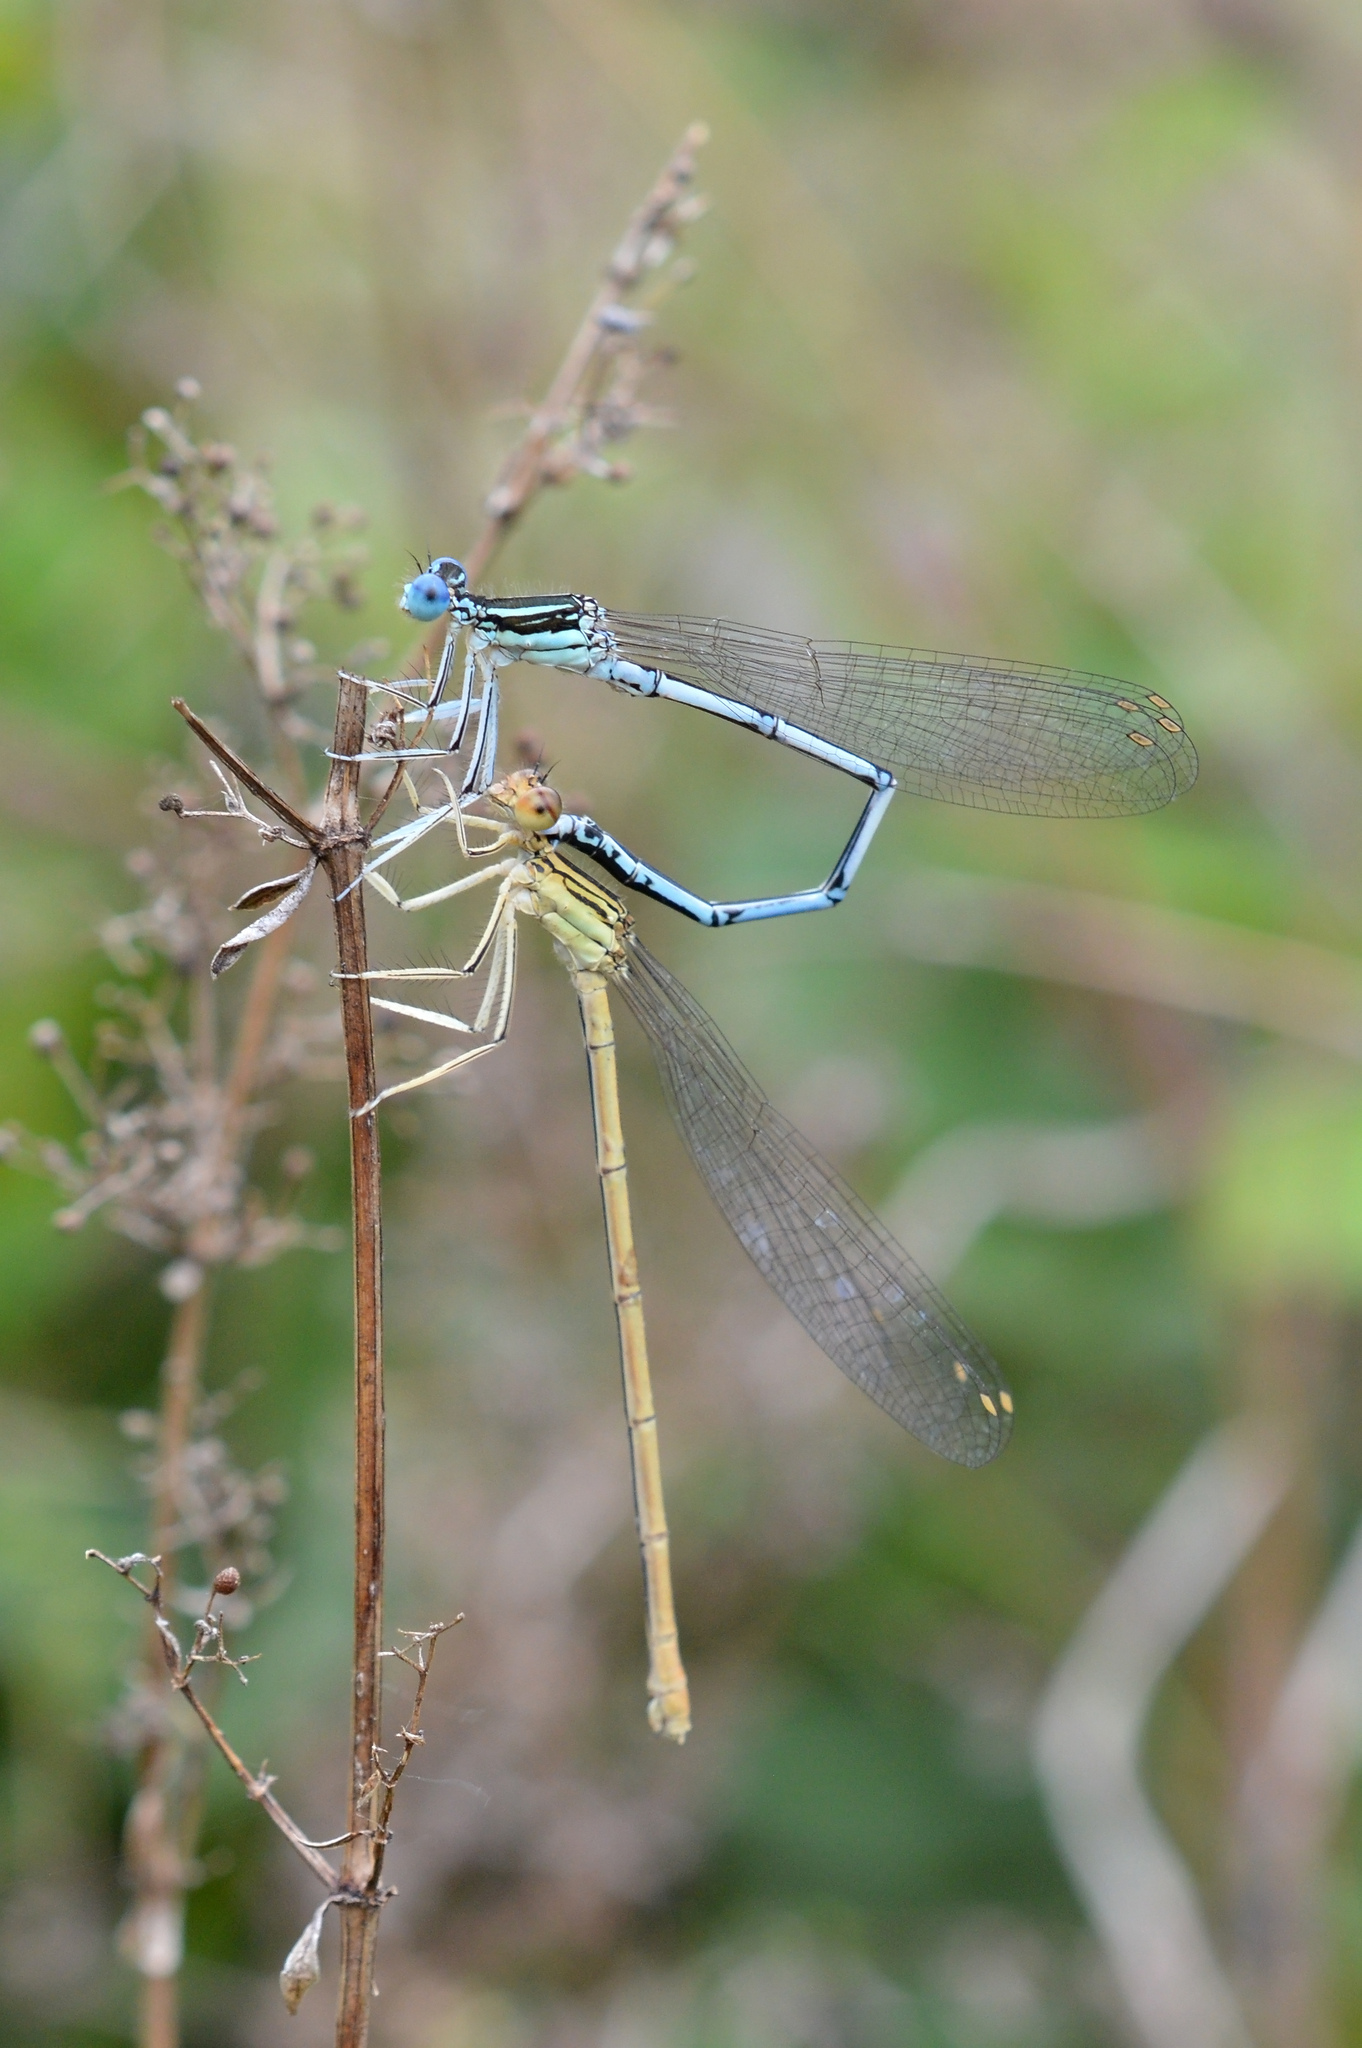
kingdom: Animalia
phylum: Arthropoda
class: Insecta
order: Odonata
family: Platycnemididae
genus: Platycnemis
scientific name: Platycnemis pennipes
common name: White-legged damselfly
